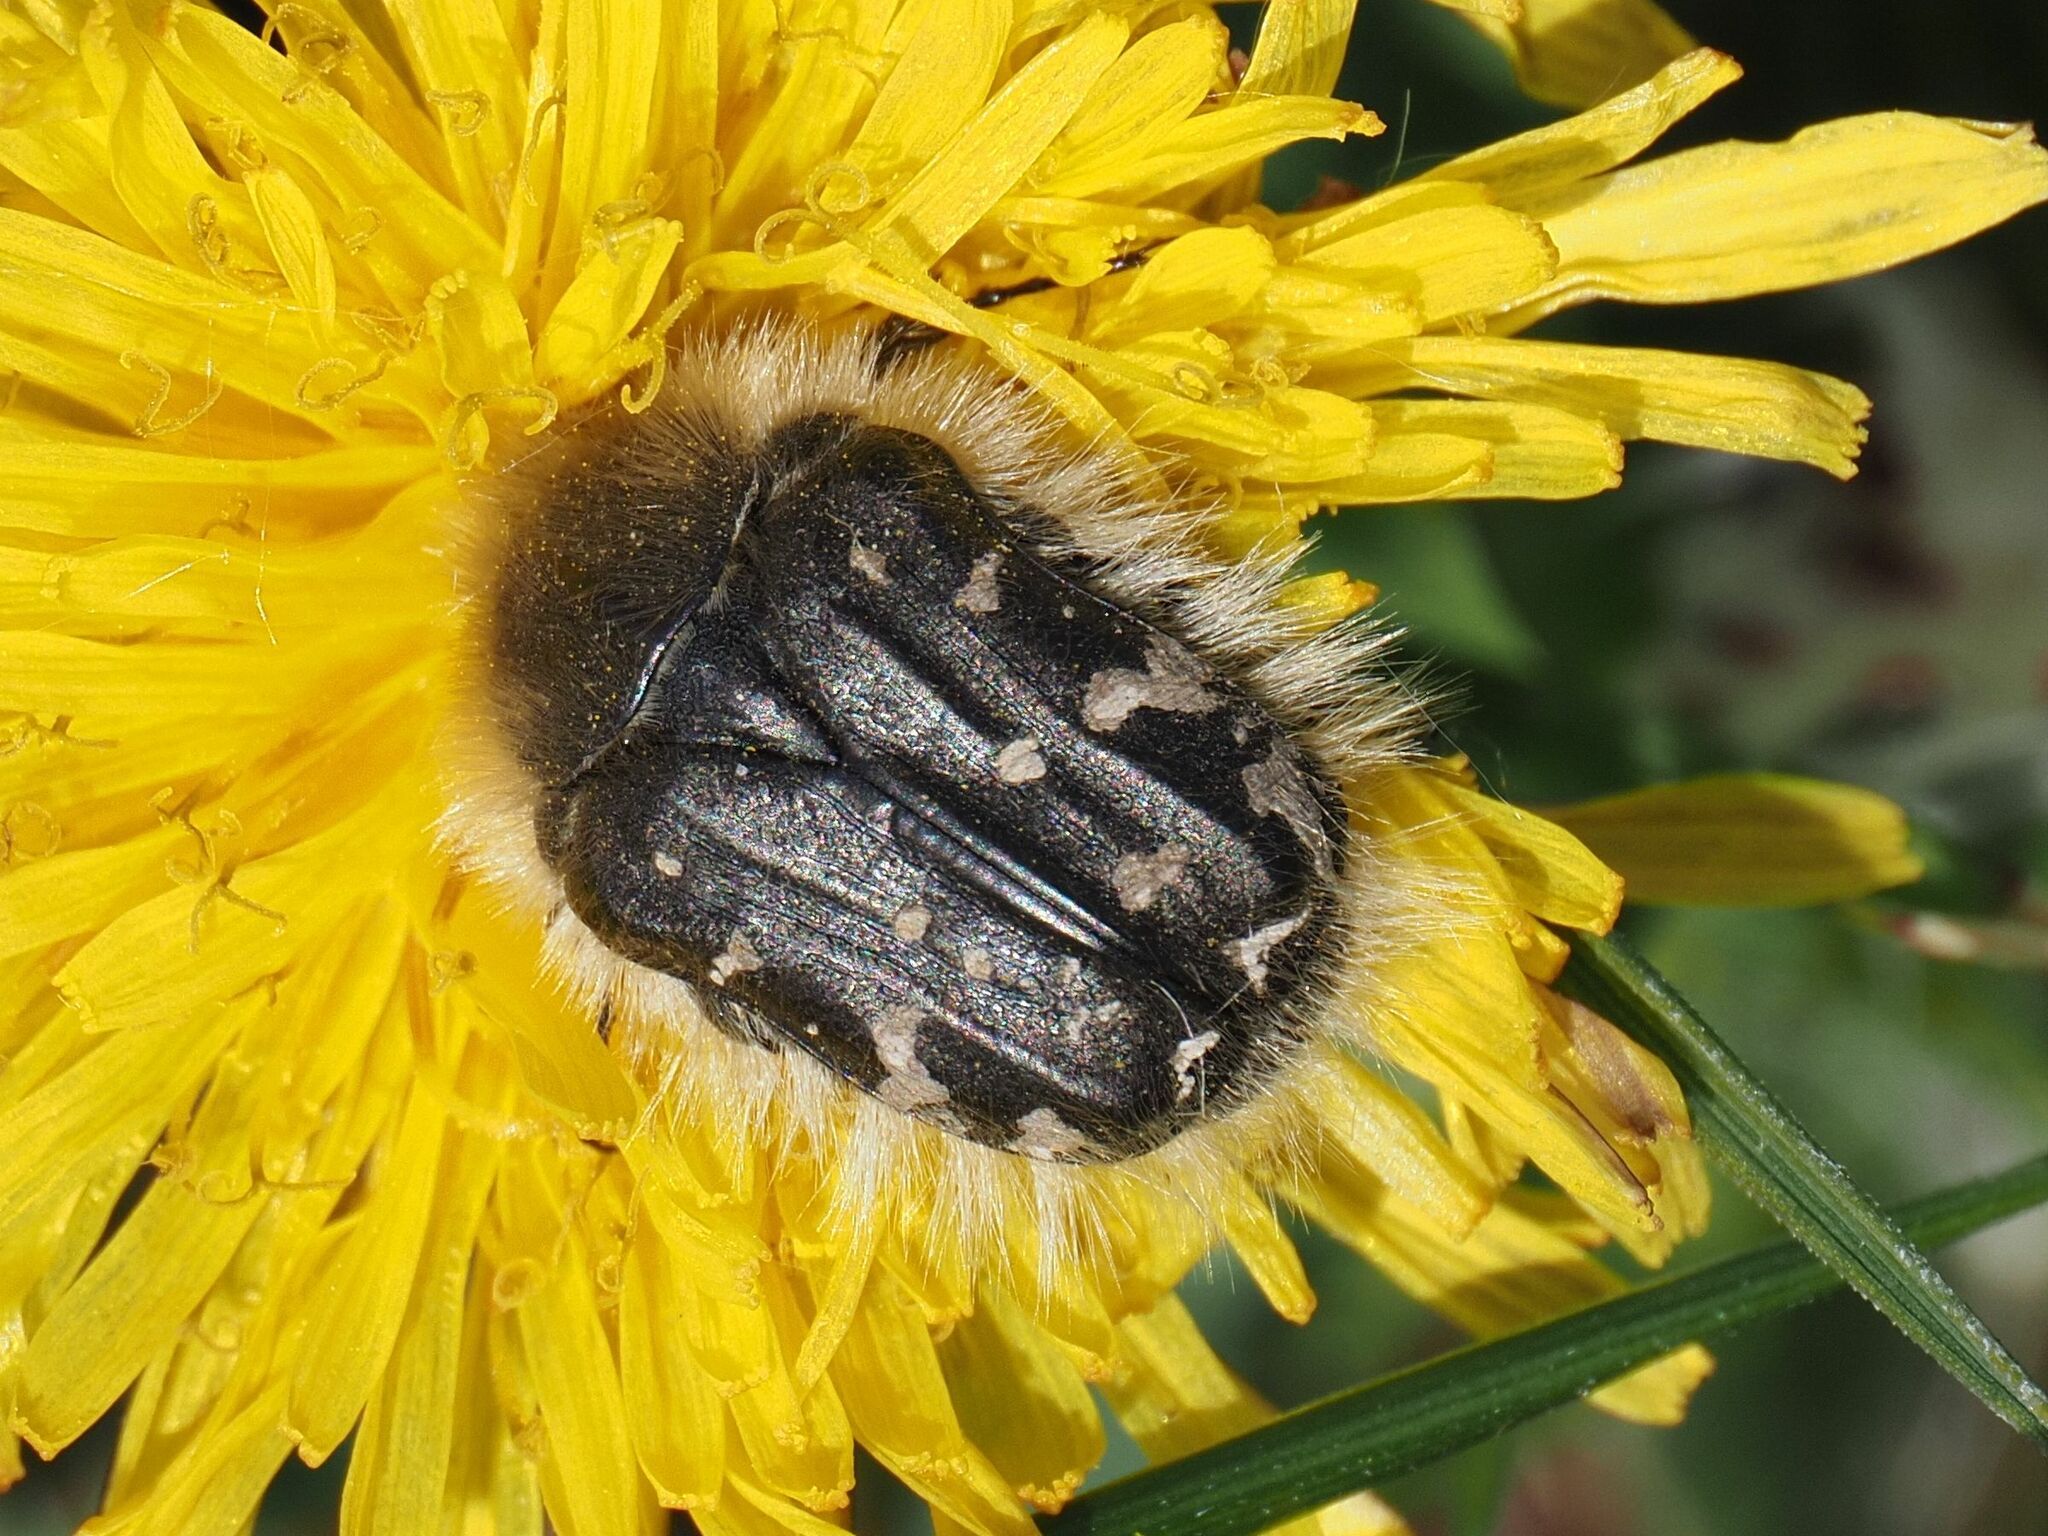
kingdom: Animalia
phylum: Arthropoda
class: Insecta
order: Coleoptera
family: Scarabaeidae
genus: Tropinota
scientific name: Tropinota hirta
